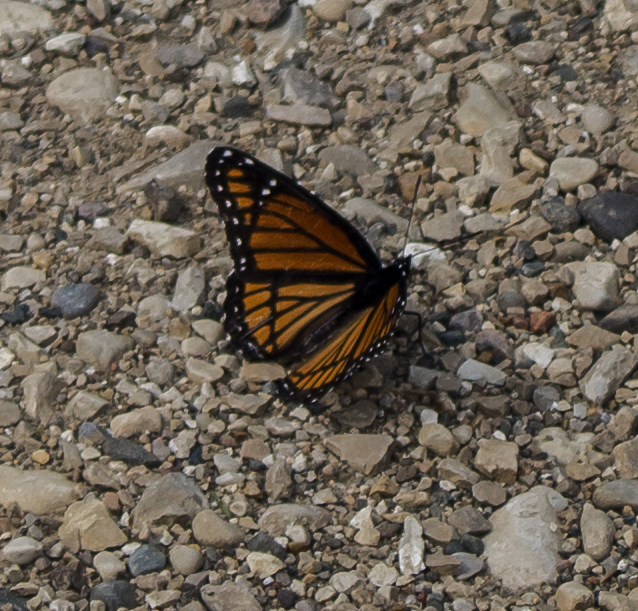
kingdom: Animalia
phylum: Arthropoda
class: Insecta
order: Lepidoptera
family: Nymphalidae
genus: Limenitis
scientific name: Limenitis archippus
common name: Viceroy
